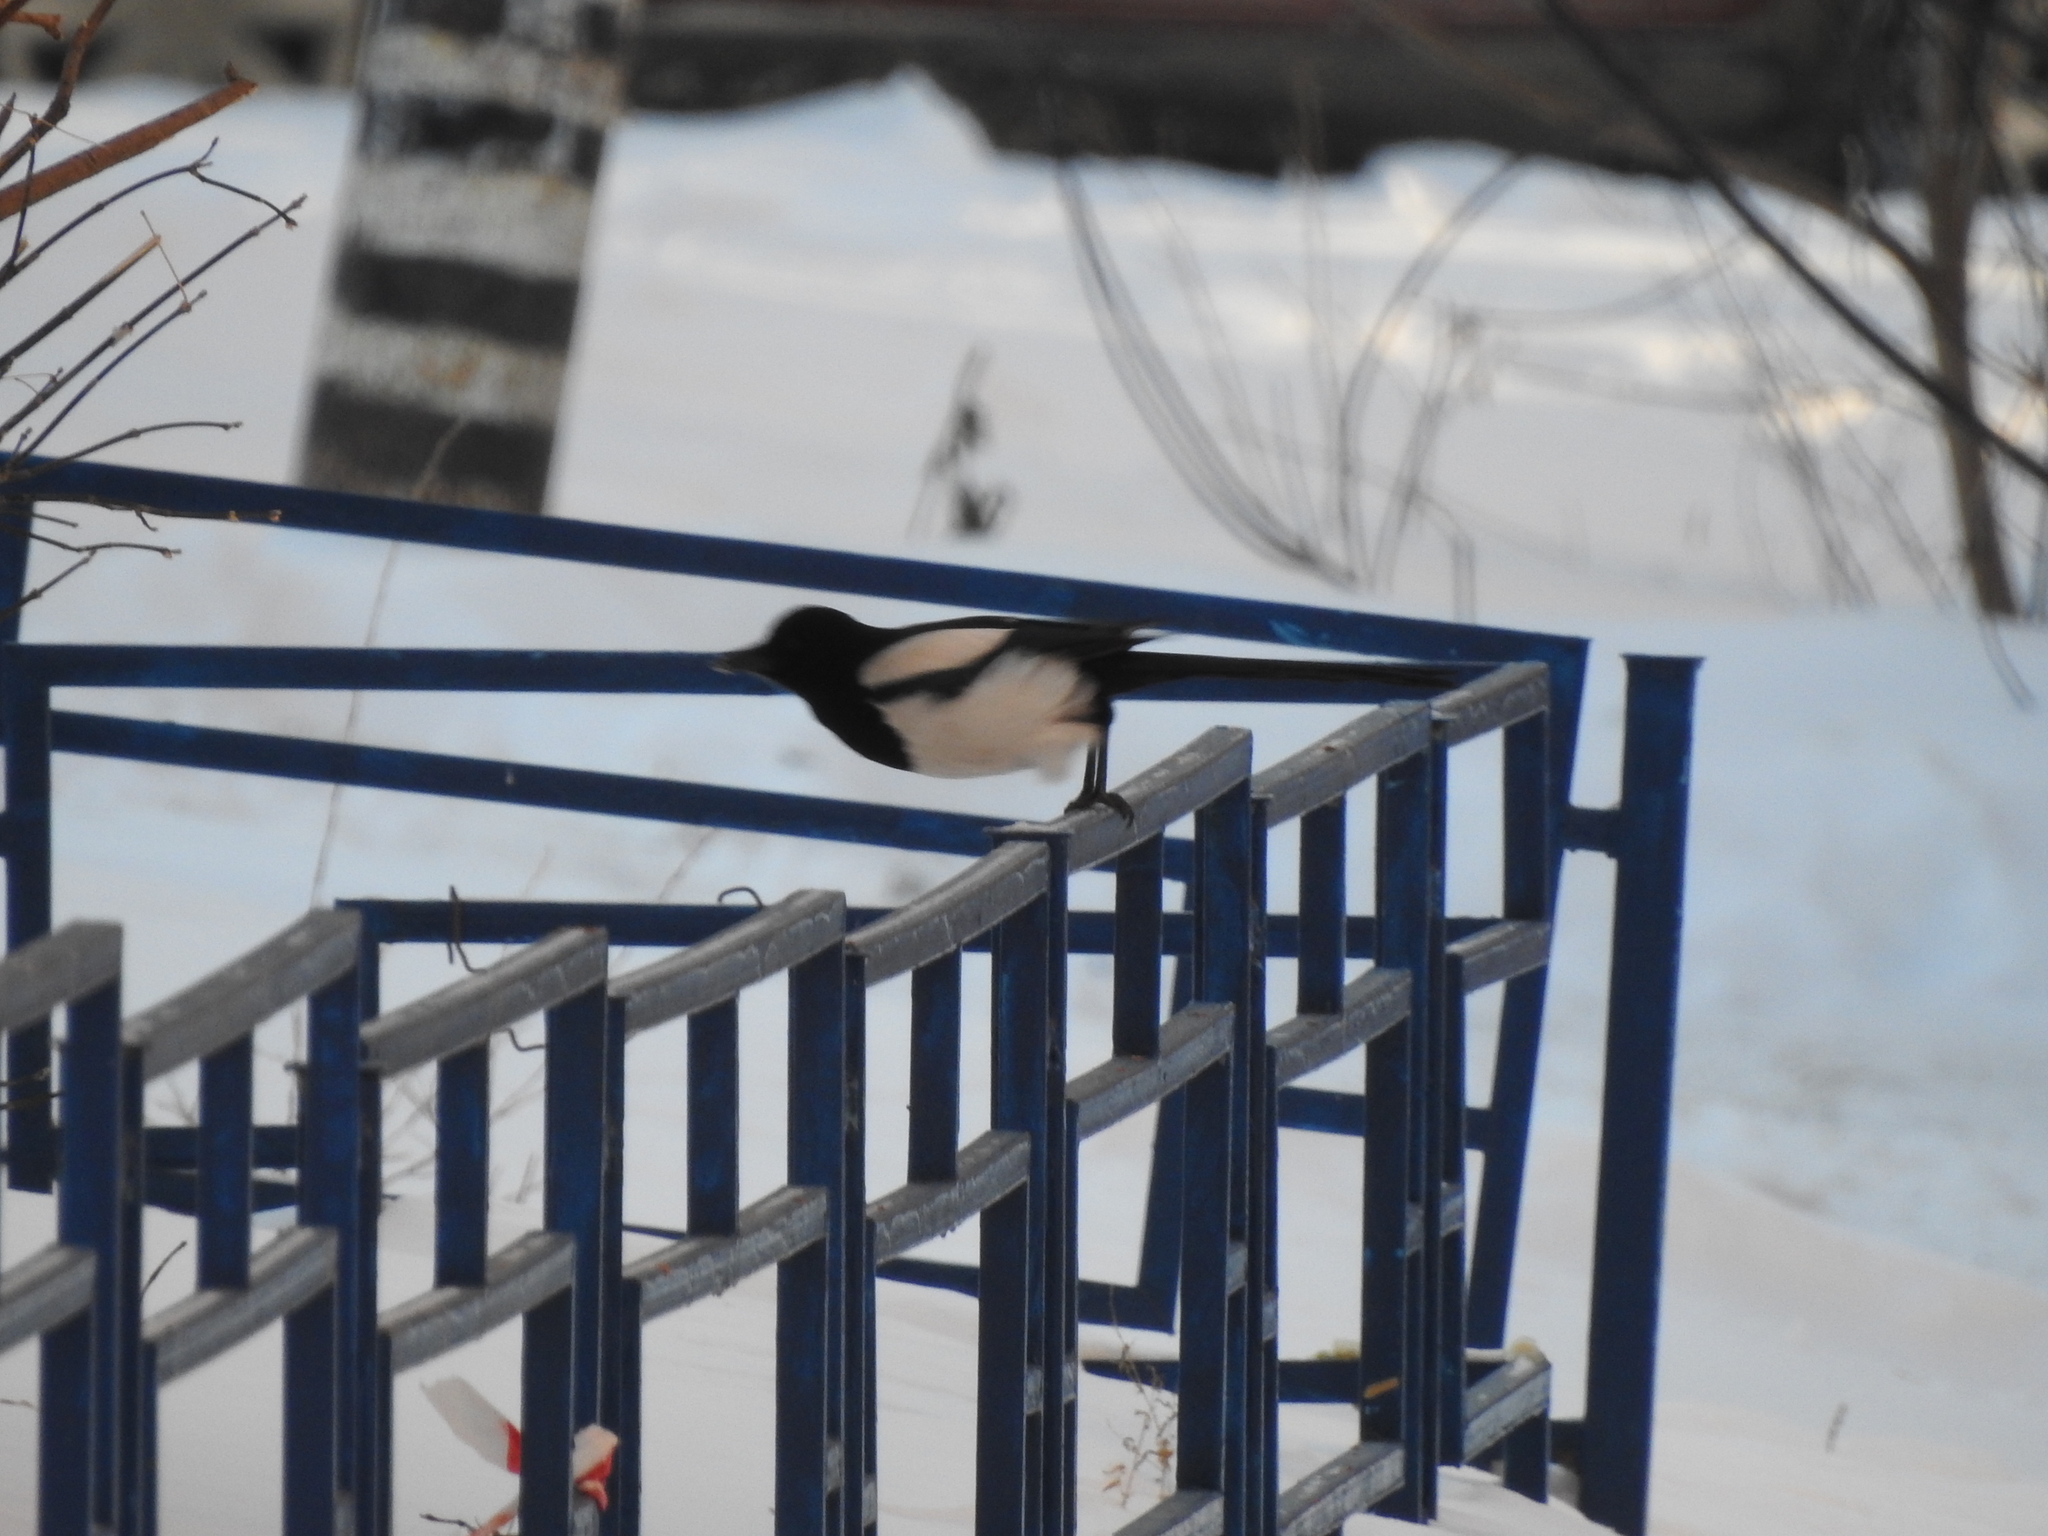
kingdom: Animalia
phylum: Chordata
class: Aves
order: Passeriformes
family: Corvidae
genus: Pica
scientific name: Pica pica
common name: Eurasian magpie
